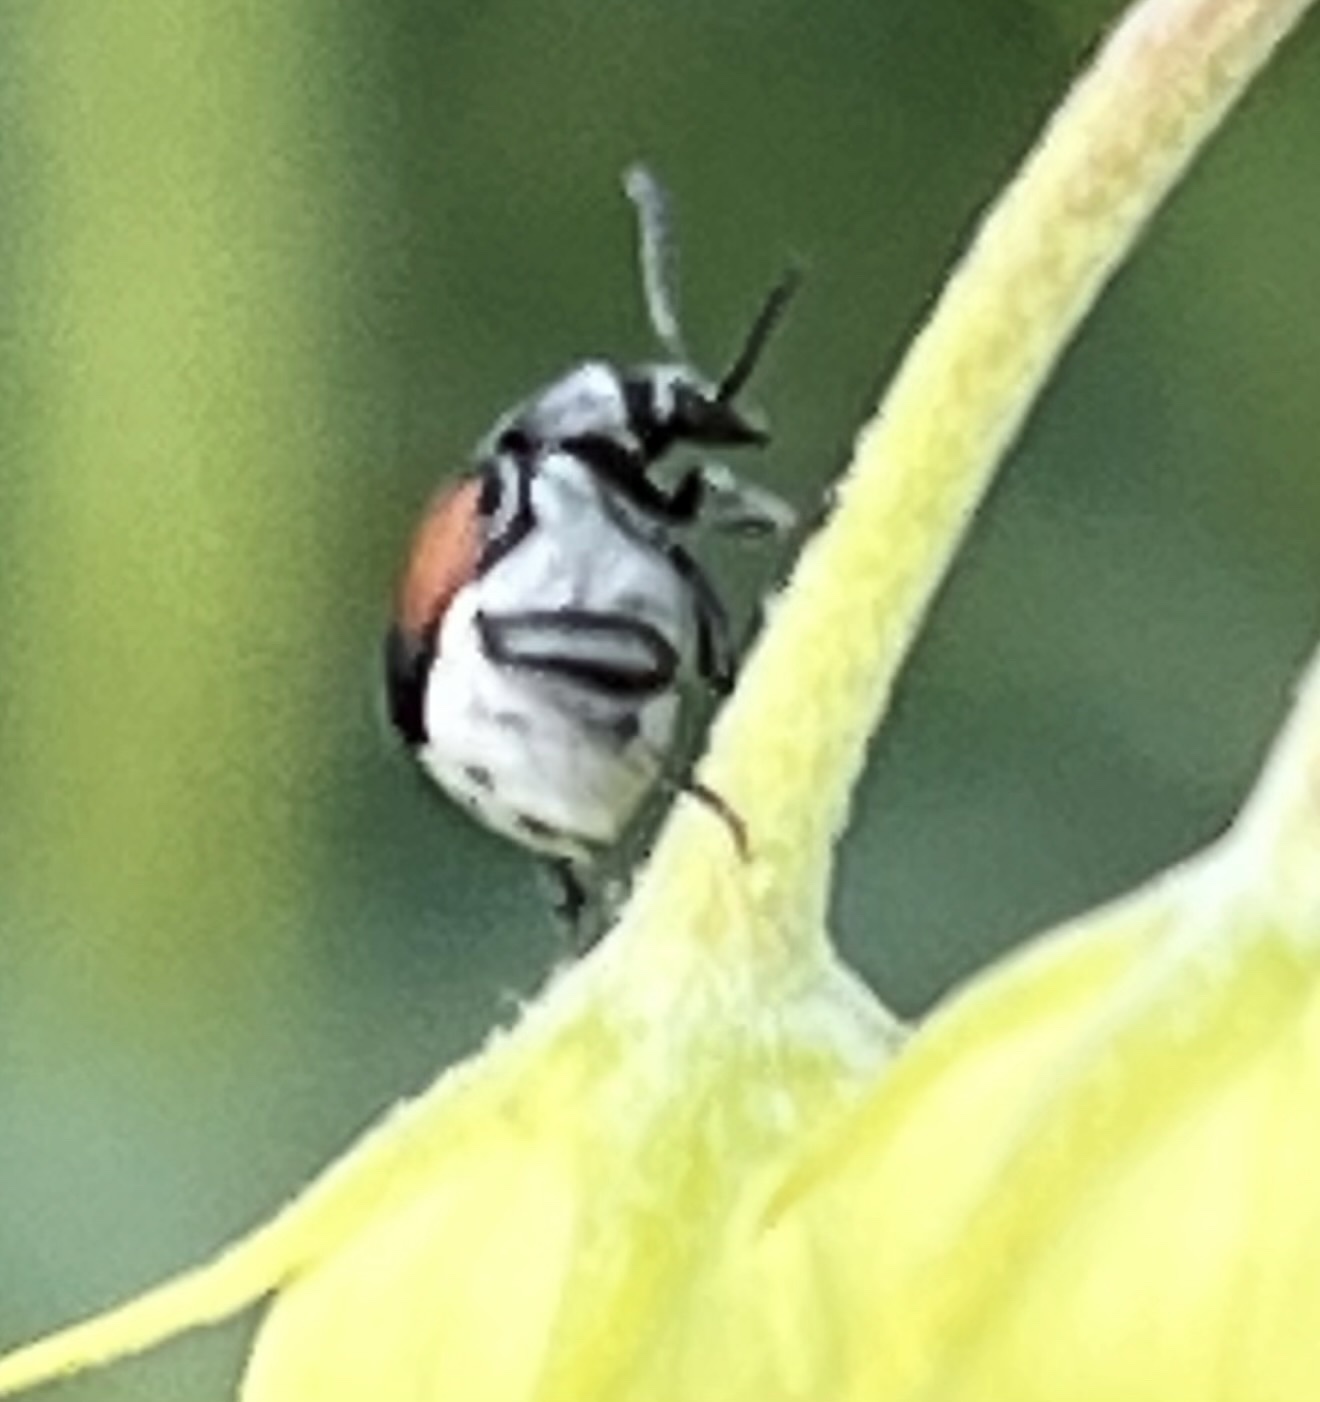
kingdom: Animalia
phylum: Arthropoda
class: Insecta
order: Coleoptera
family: Chrysomelidae
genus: Megacerus
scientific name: Megacerus discoidus
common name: Red megacerus
